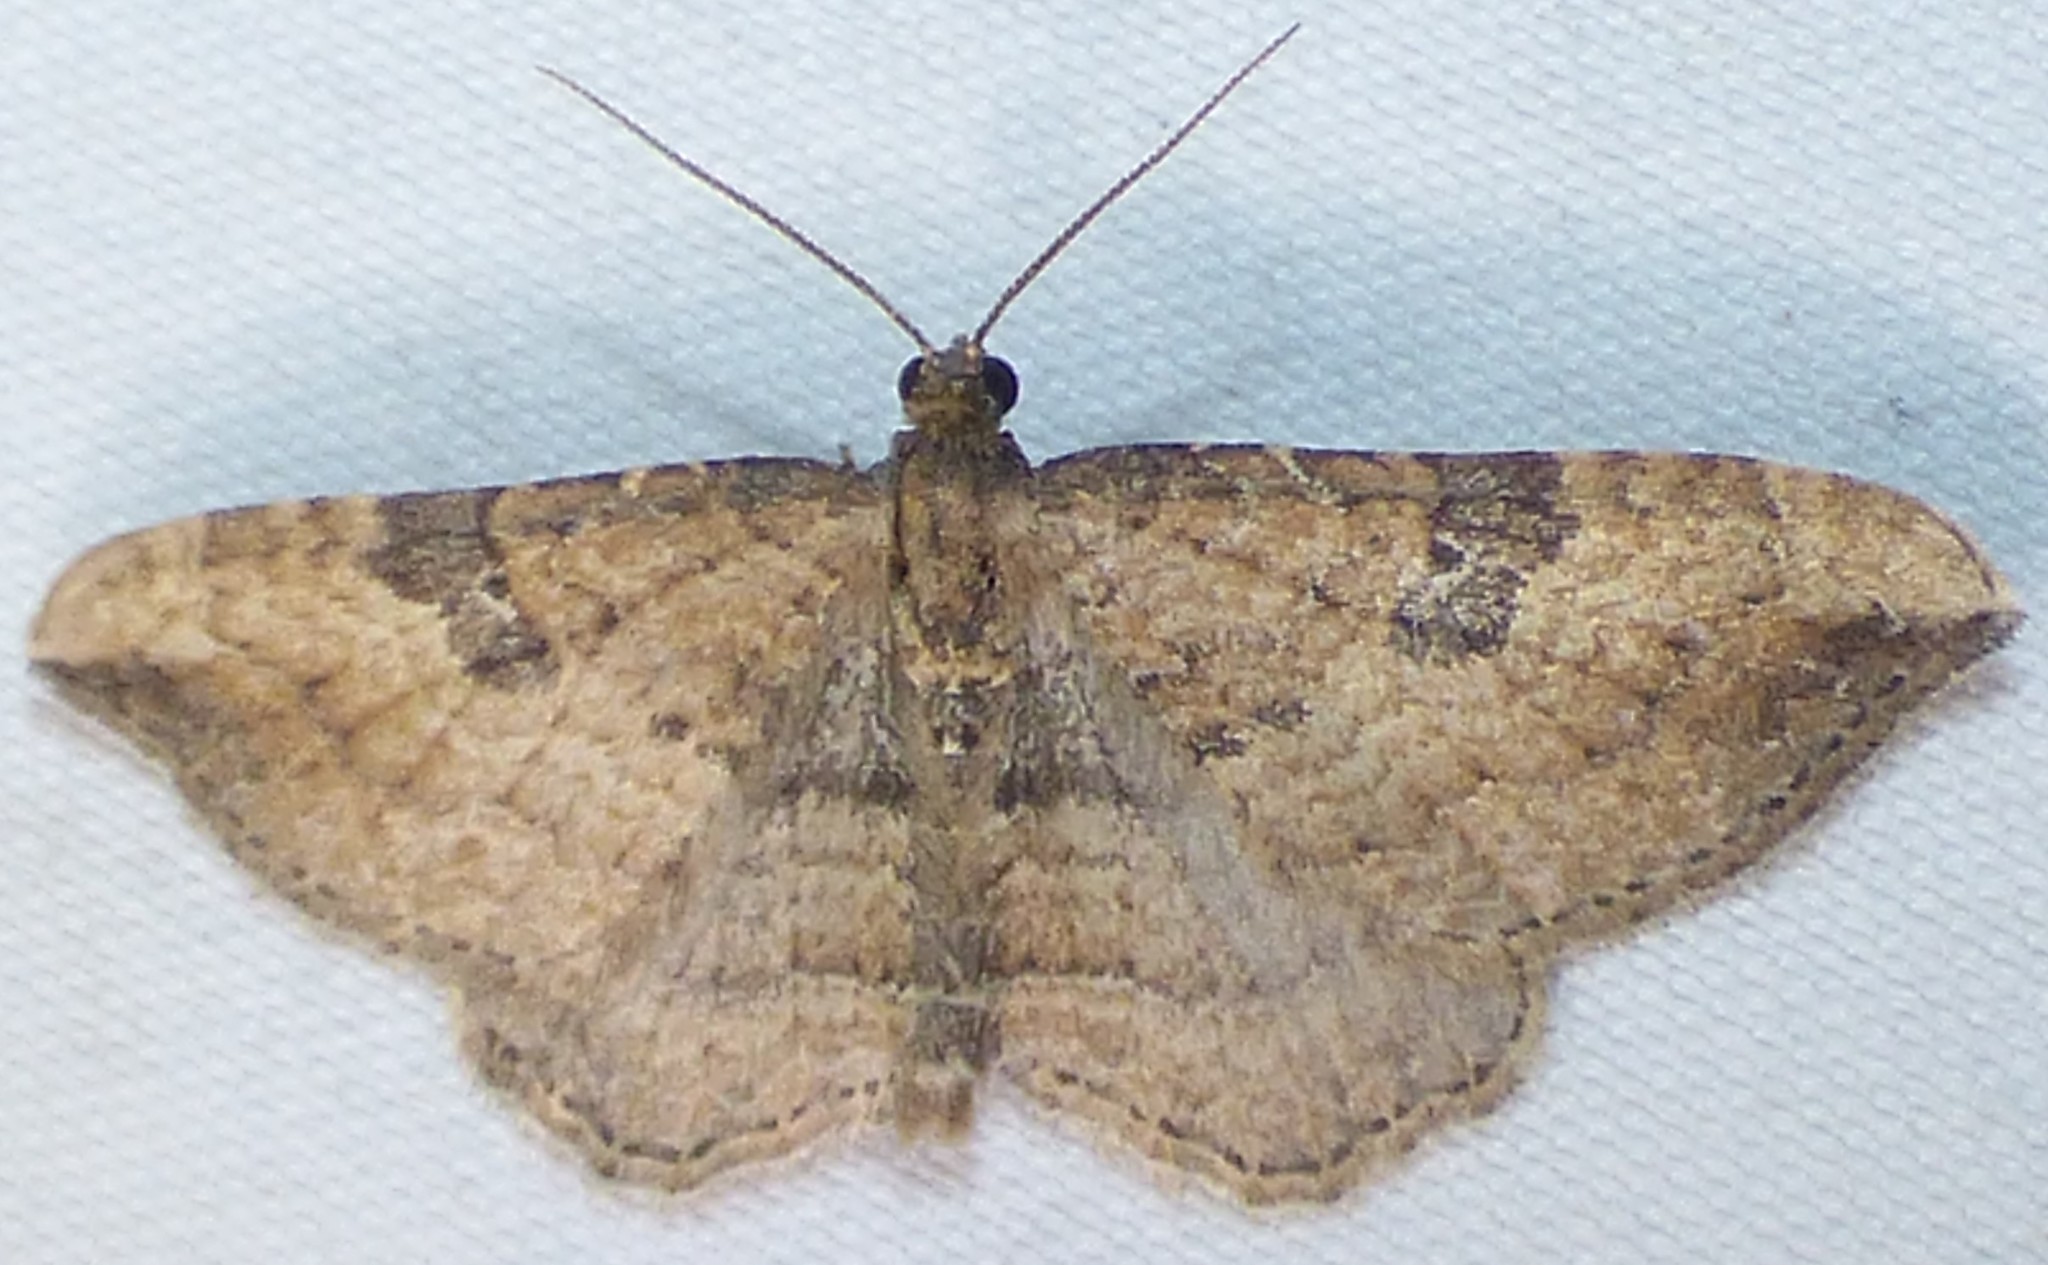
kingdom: Animalia
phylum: Arthropoda
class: Insecta
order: Lepidoptera
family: Geometridae
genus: Orthonama
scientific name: Orthonama obstipata
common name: The gem
